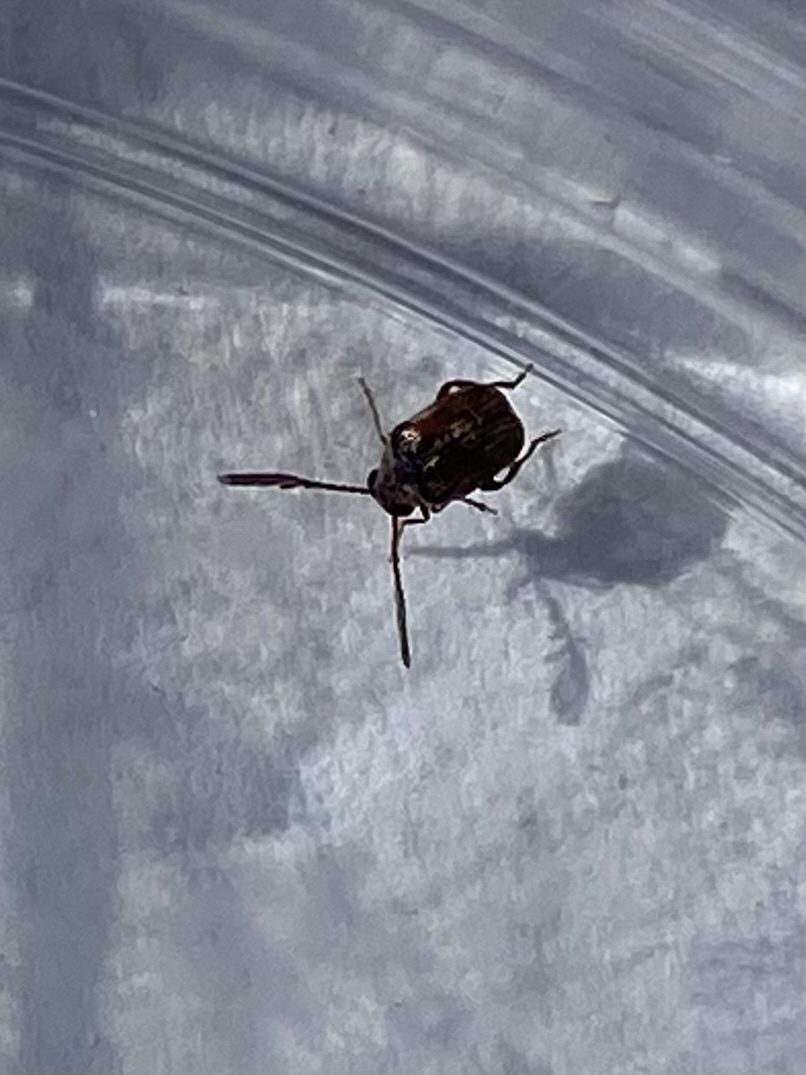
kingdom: Animalia
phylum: Arthropoda
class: Insecta
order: Coleoptera
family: Chrysomelidae
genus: Megacerus
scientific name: Megacerus
